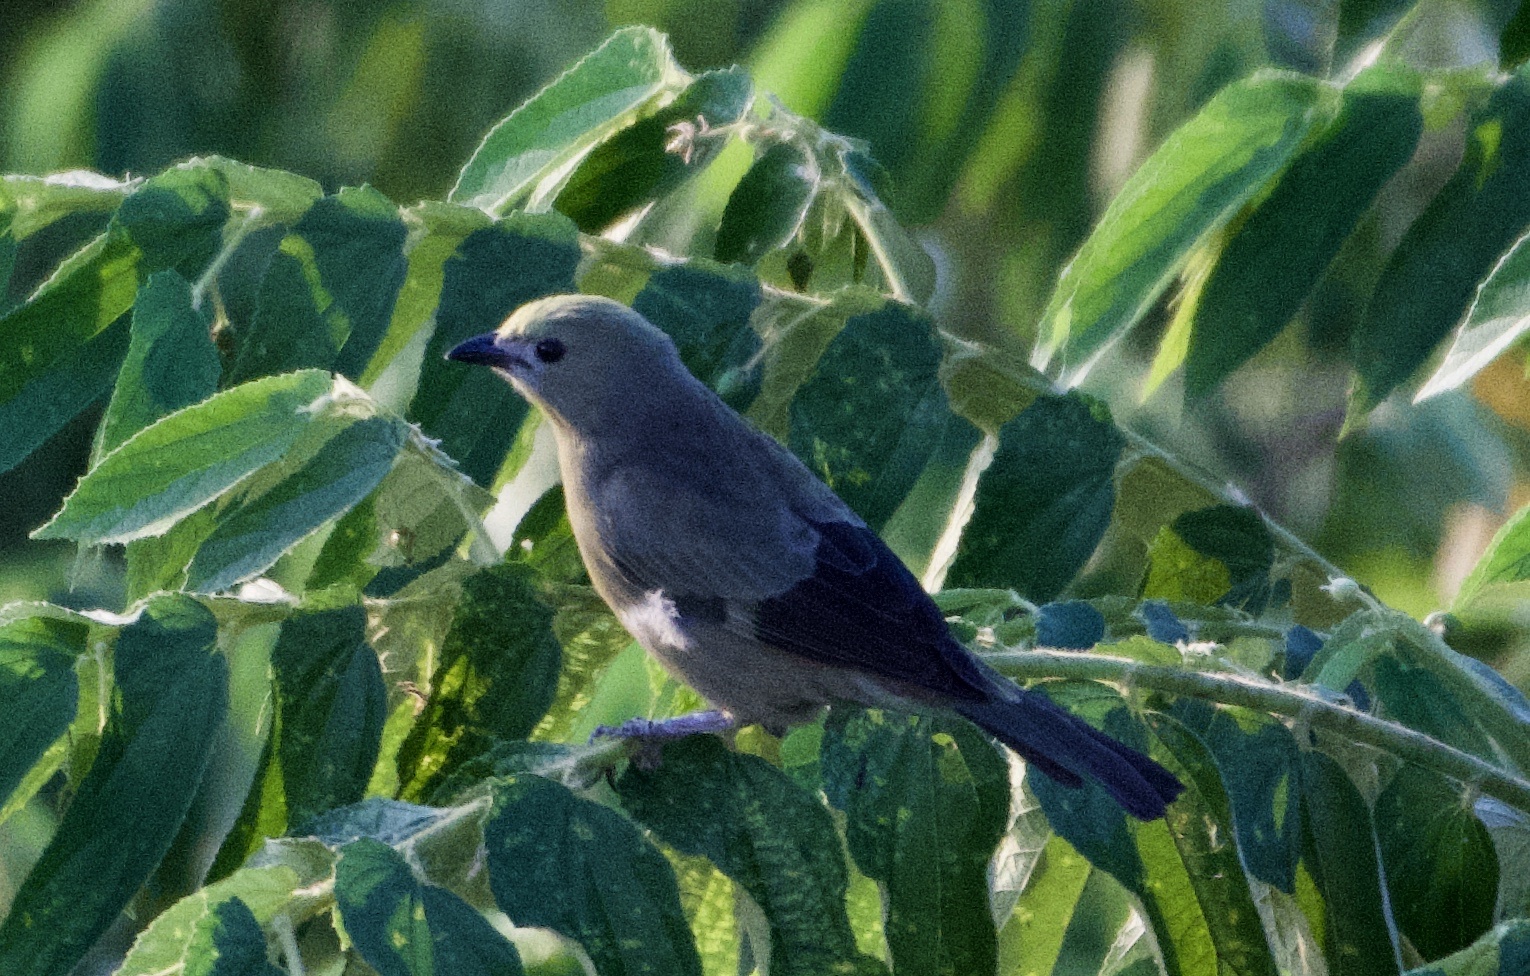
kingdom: Animalia
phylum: Chordata
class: Aves
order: Passeriformes
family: Thraupidae
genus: Thraupis
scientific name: Thraupis palmarum
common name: Palm tanager
